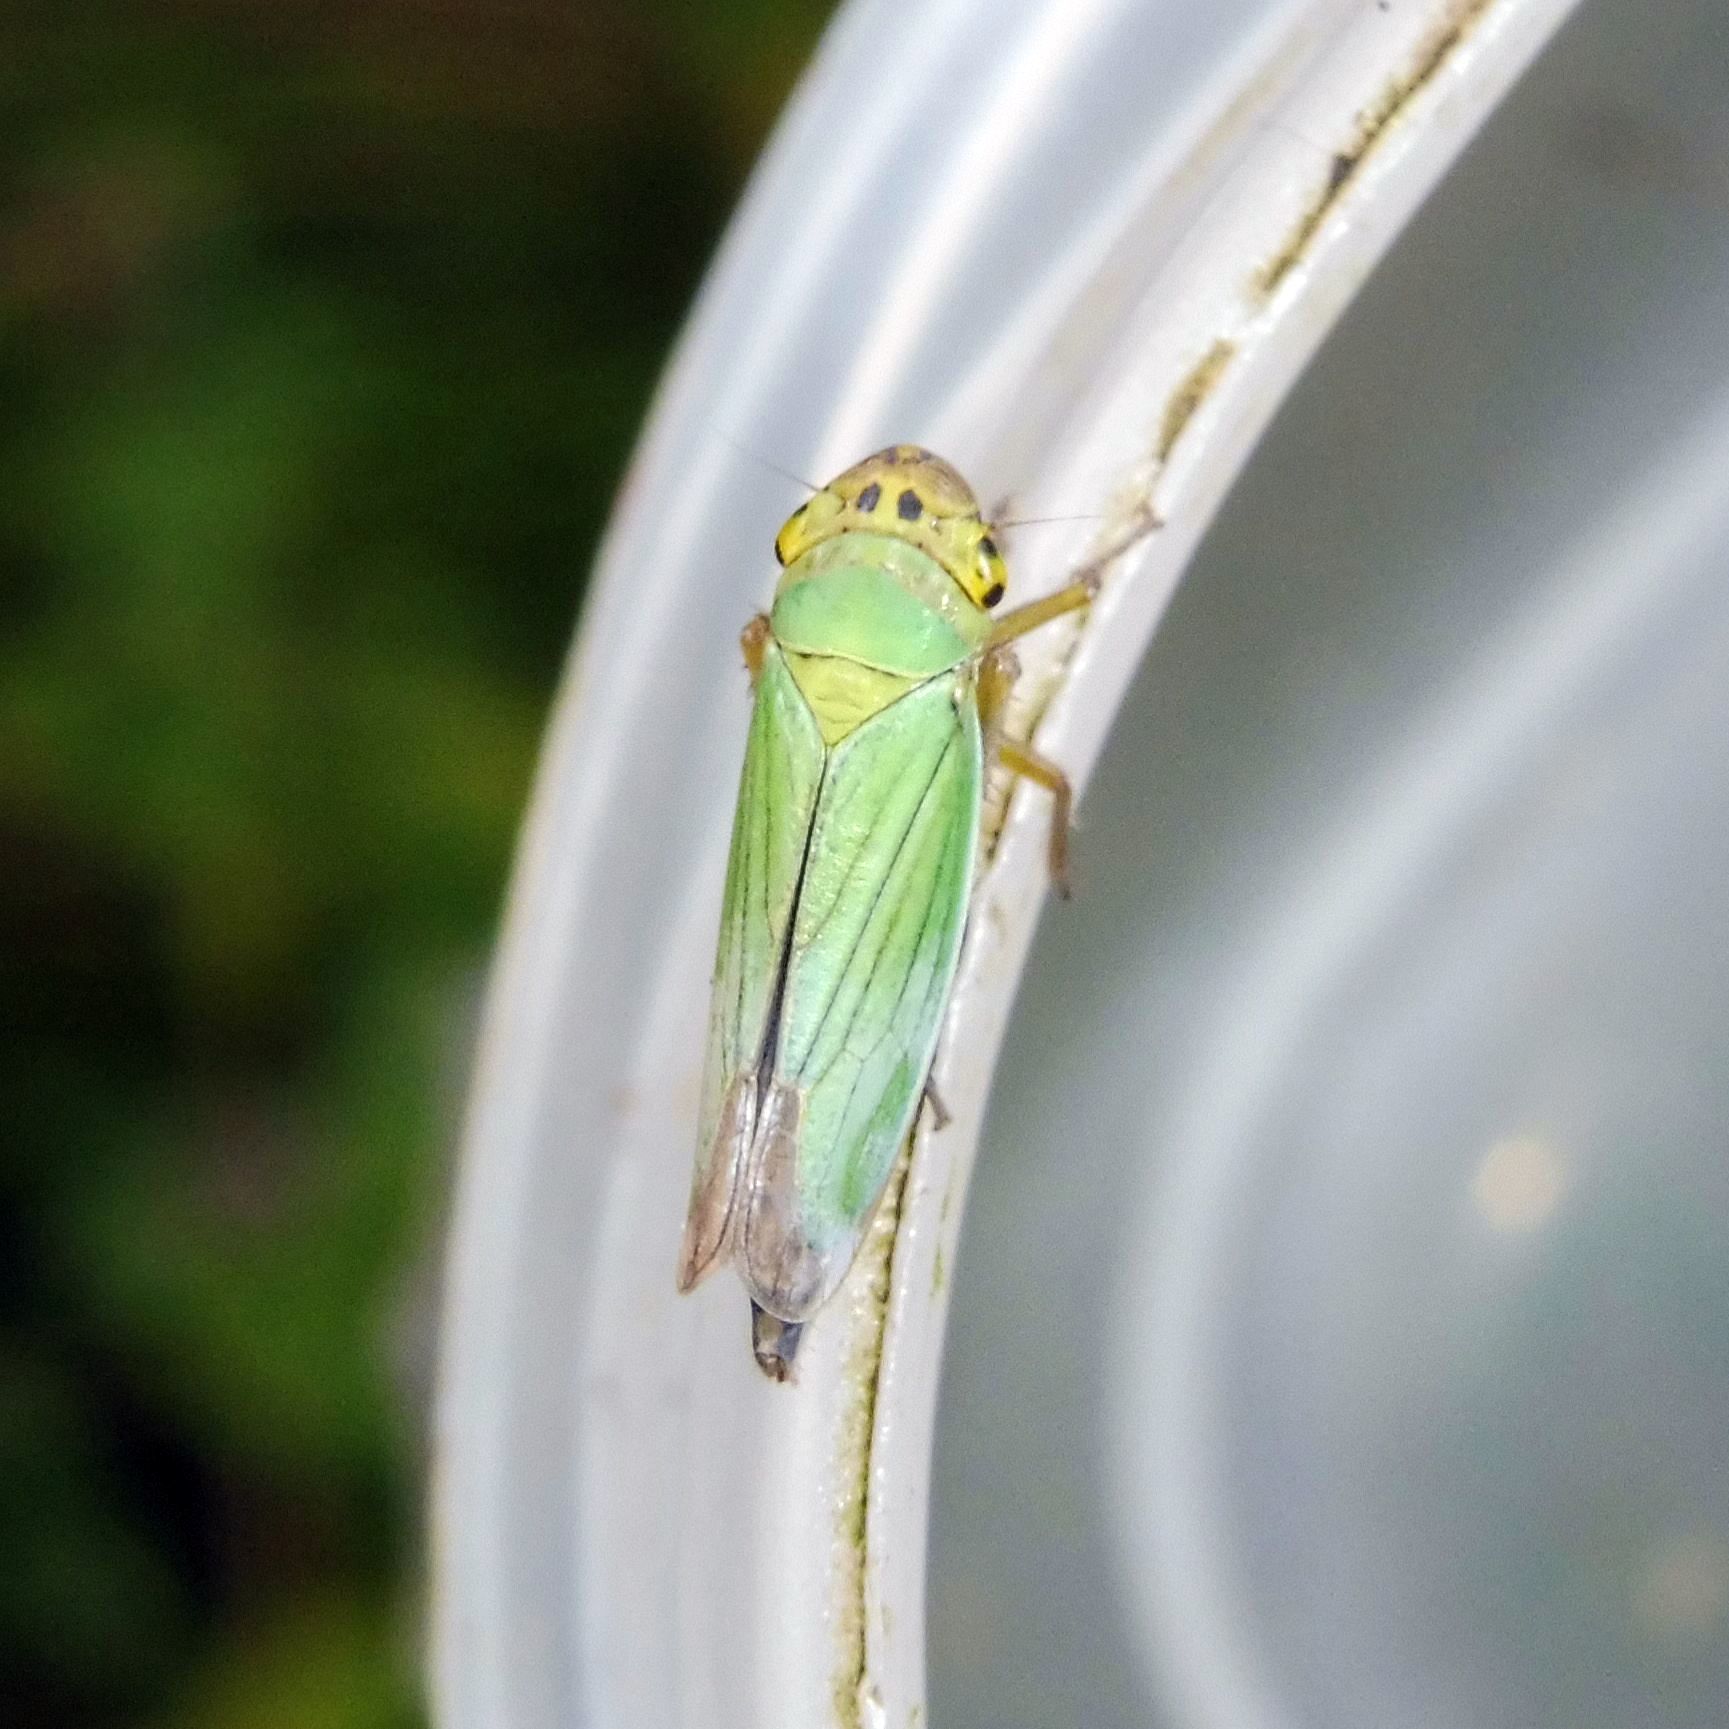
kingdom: Animalia
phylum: Arthropoda
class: Insecta
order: Hemiptera
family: Cicadellidae
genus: Cicadella
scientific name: Cicadella viridis
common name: Leafhopper
